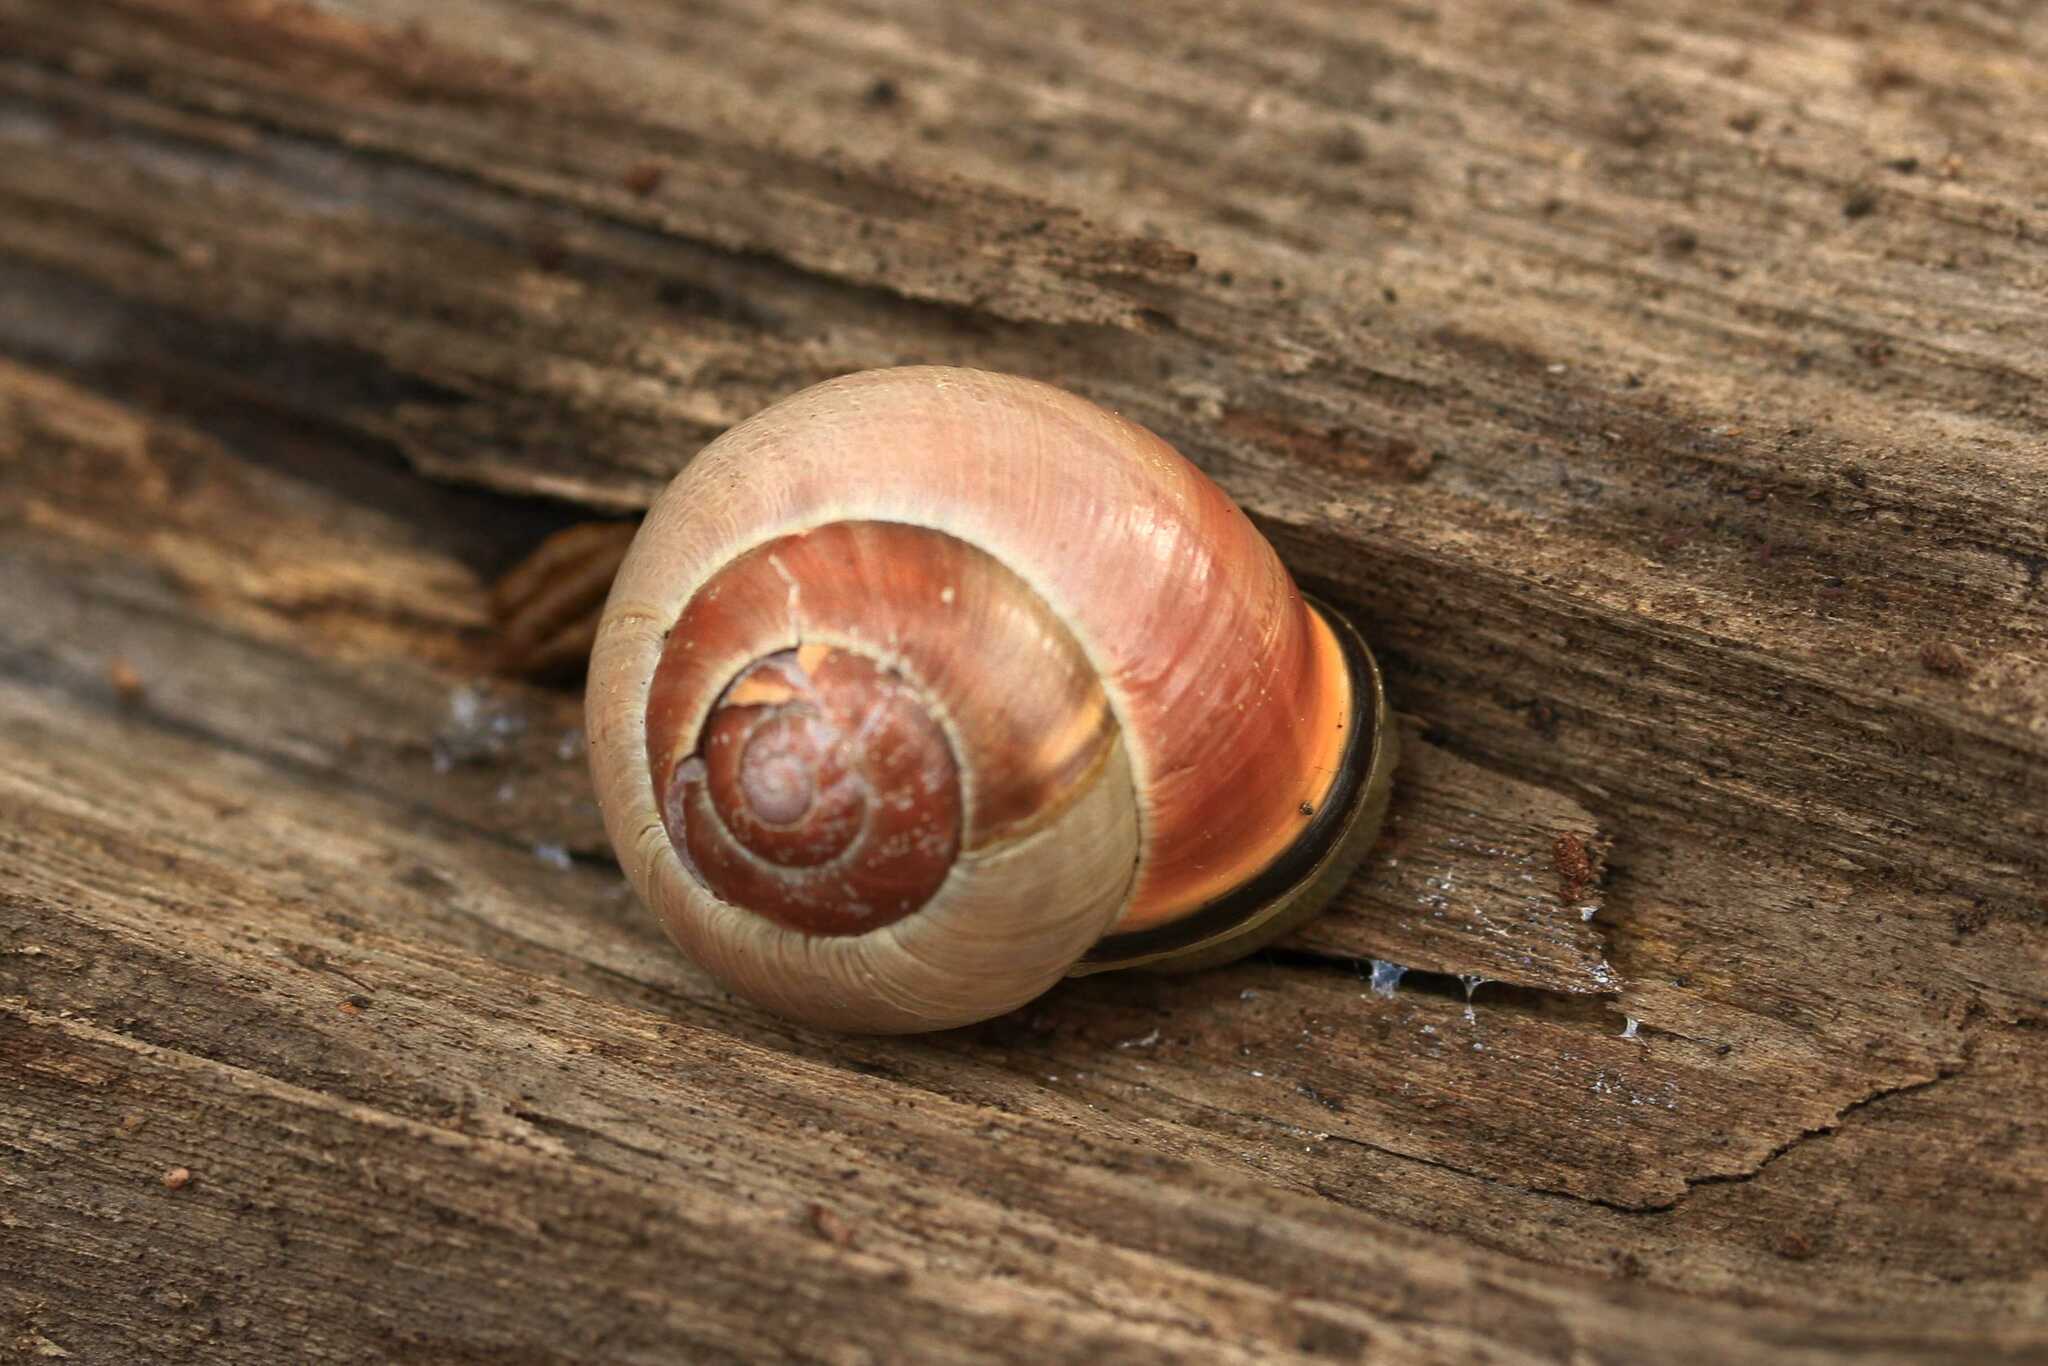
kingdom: Animalia
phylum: Mollusca
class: Gastropoda
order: Stylommatophora
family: Helicidae
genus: Cepaea
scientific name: Cepaea nemoralis
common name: Grovesnail
